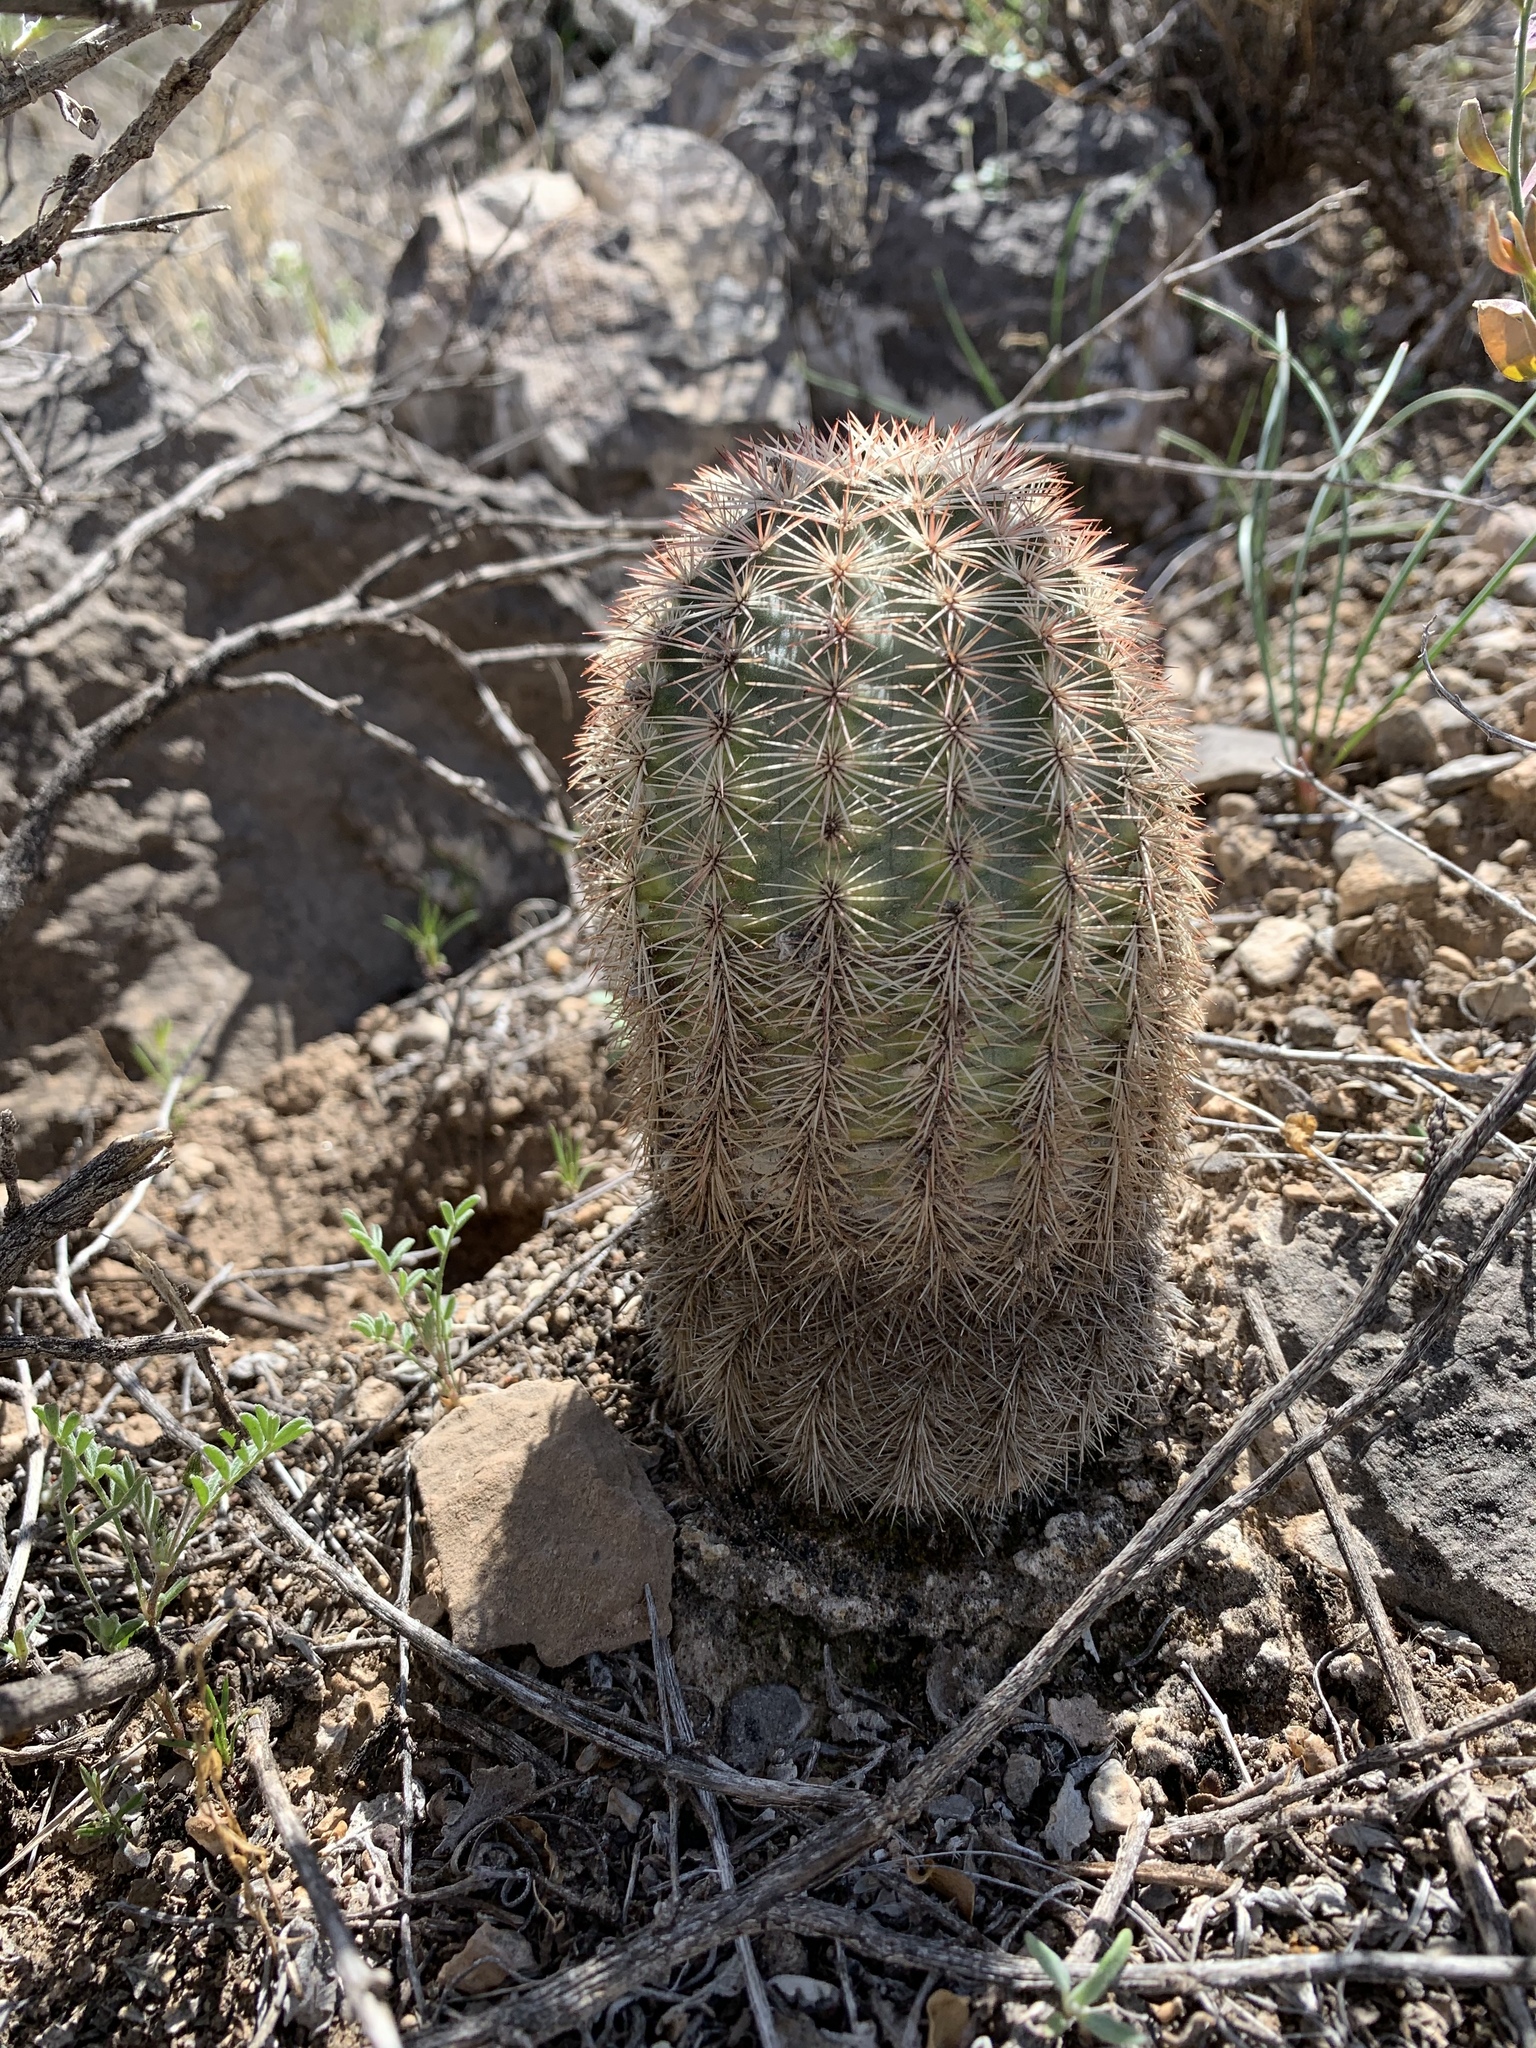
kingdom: Plantae
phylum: Tracheophyta
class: Magnoliopsida
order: Caryophyllales
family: Cactaceae
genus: Echinocereus
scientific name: Echinocereus dasyacanthus
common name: Spiny hedgehog cactus
